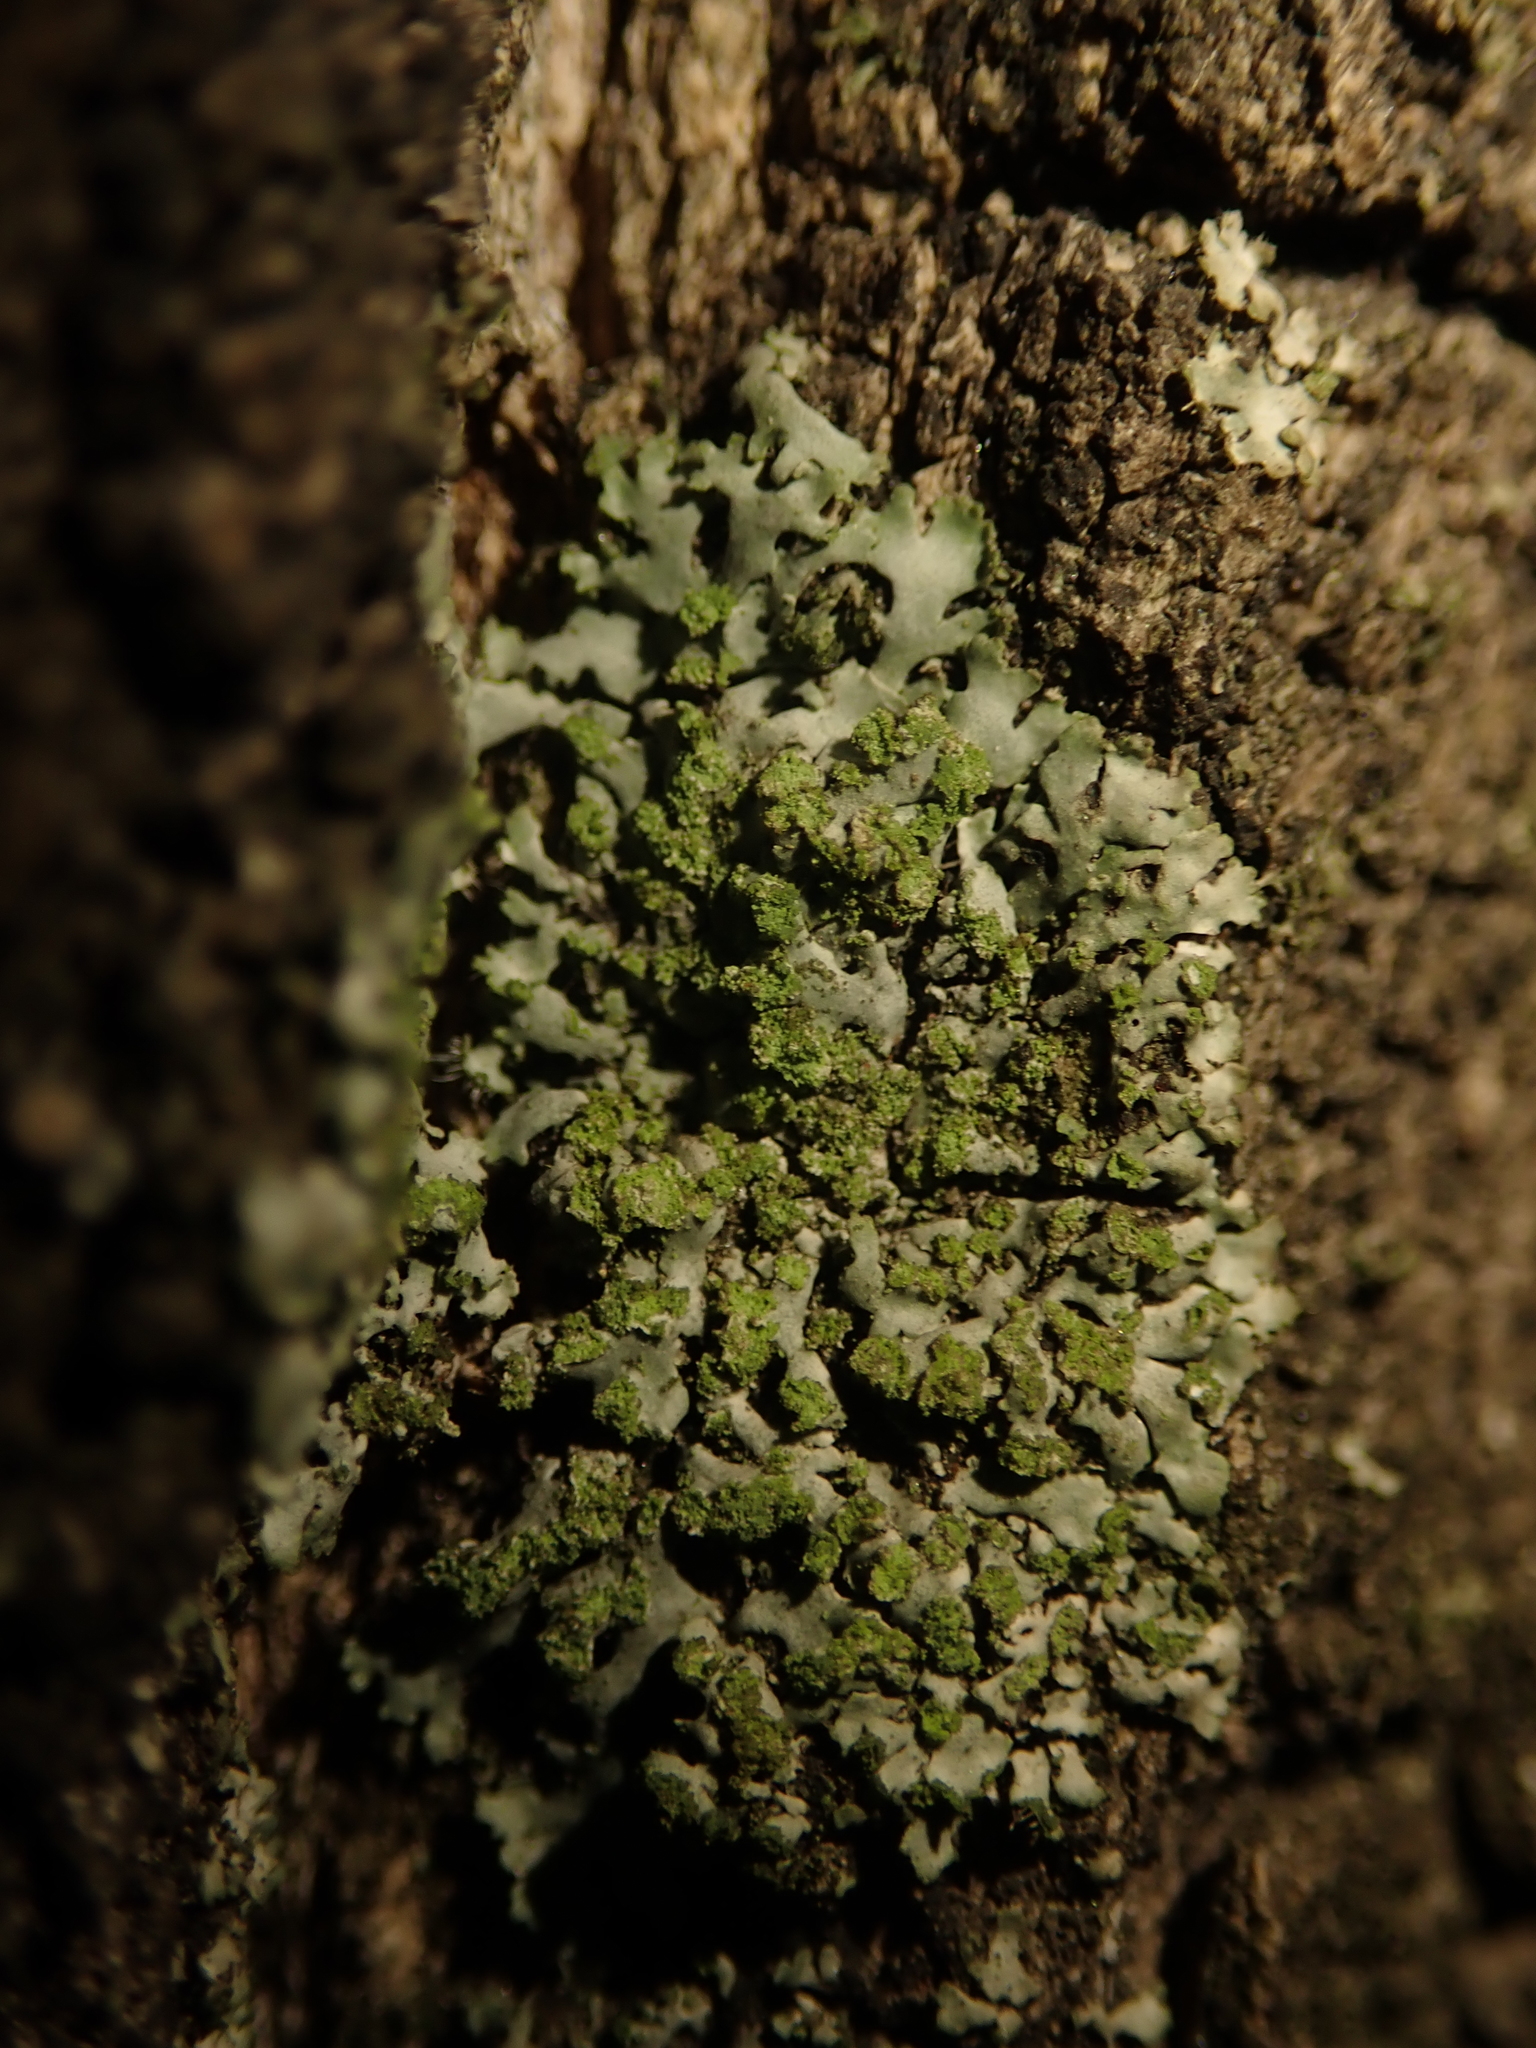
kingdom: Fungi
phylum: Ascomycota
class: Lecanoromycetes
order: Caliciales
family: Physciaceae
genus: Phaeophyscia
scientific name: Phaeophyscia orbicularis
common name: Mealy shadow lichen
